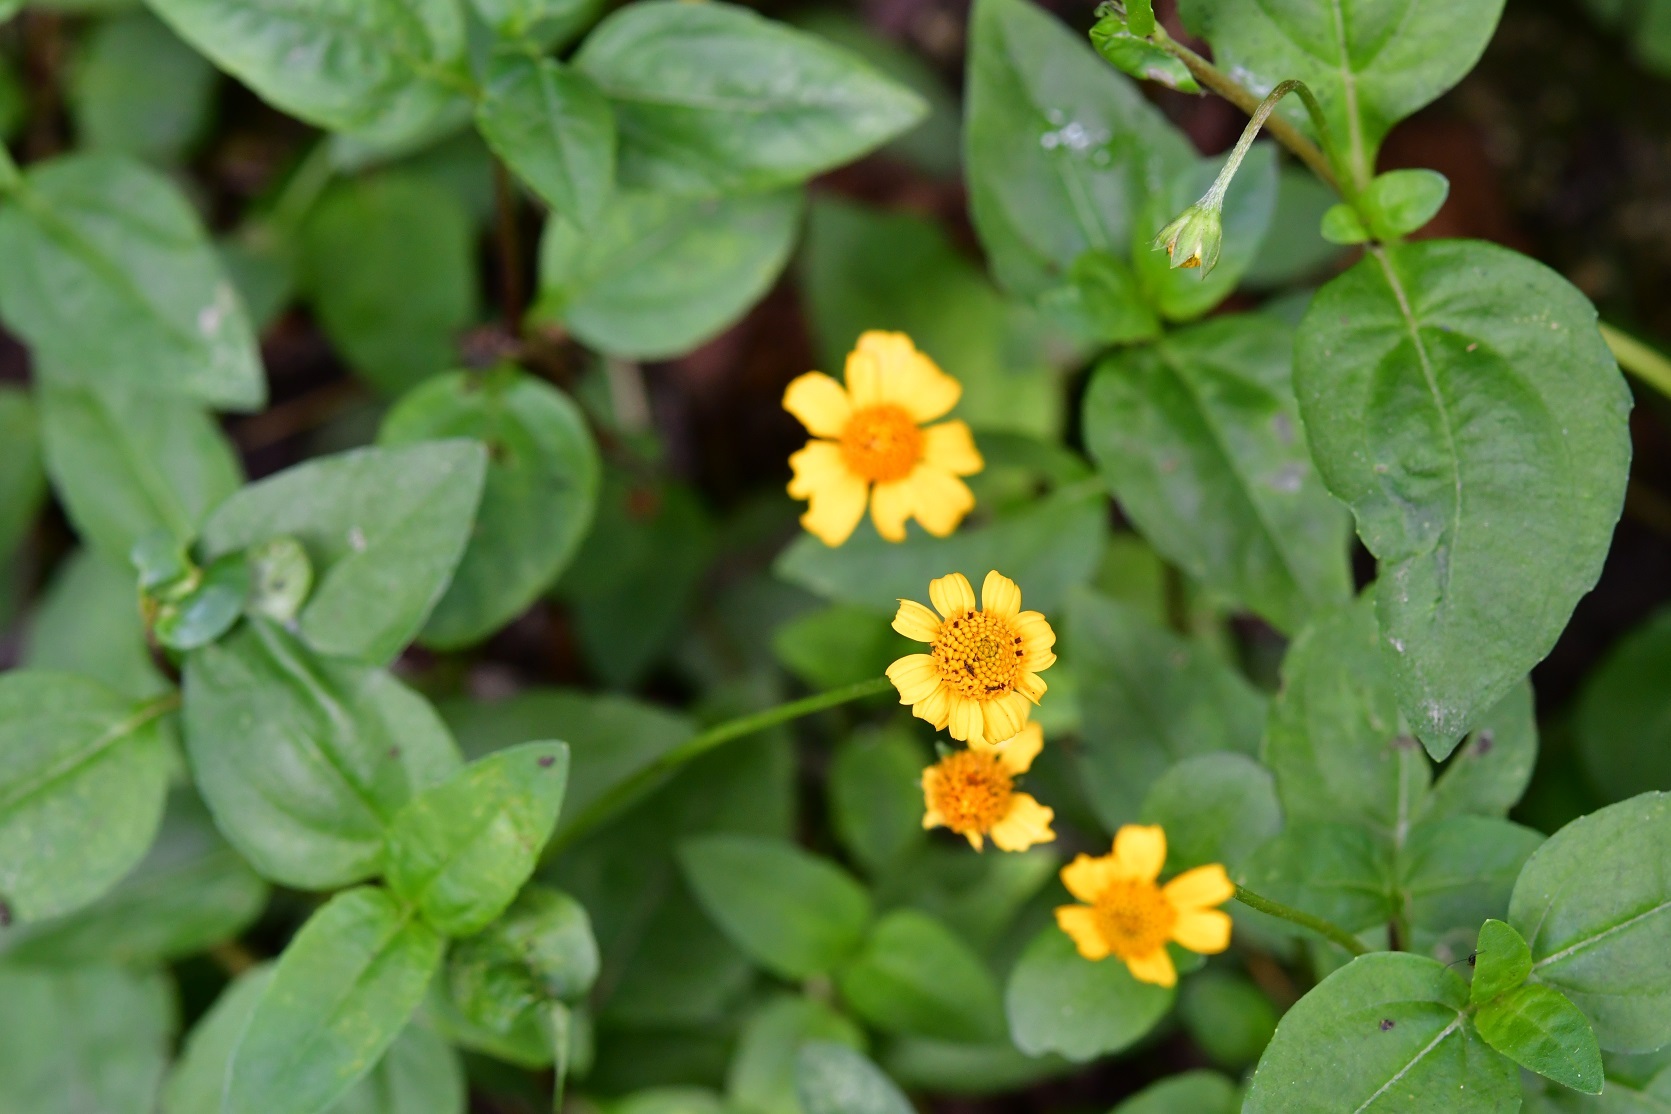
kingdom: Plantae
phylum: Tracheophyta
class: Magnoliopsida
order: Asterales
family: Asteraceae
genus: Acmella
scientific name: Acmella repens
